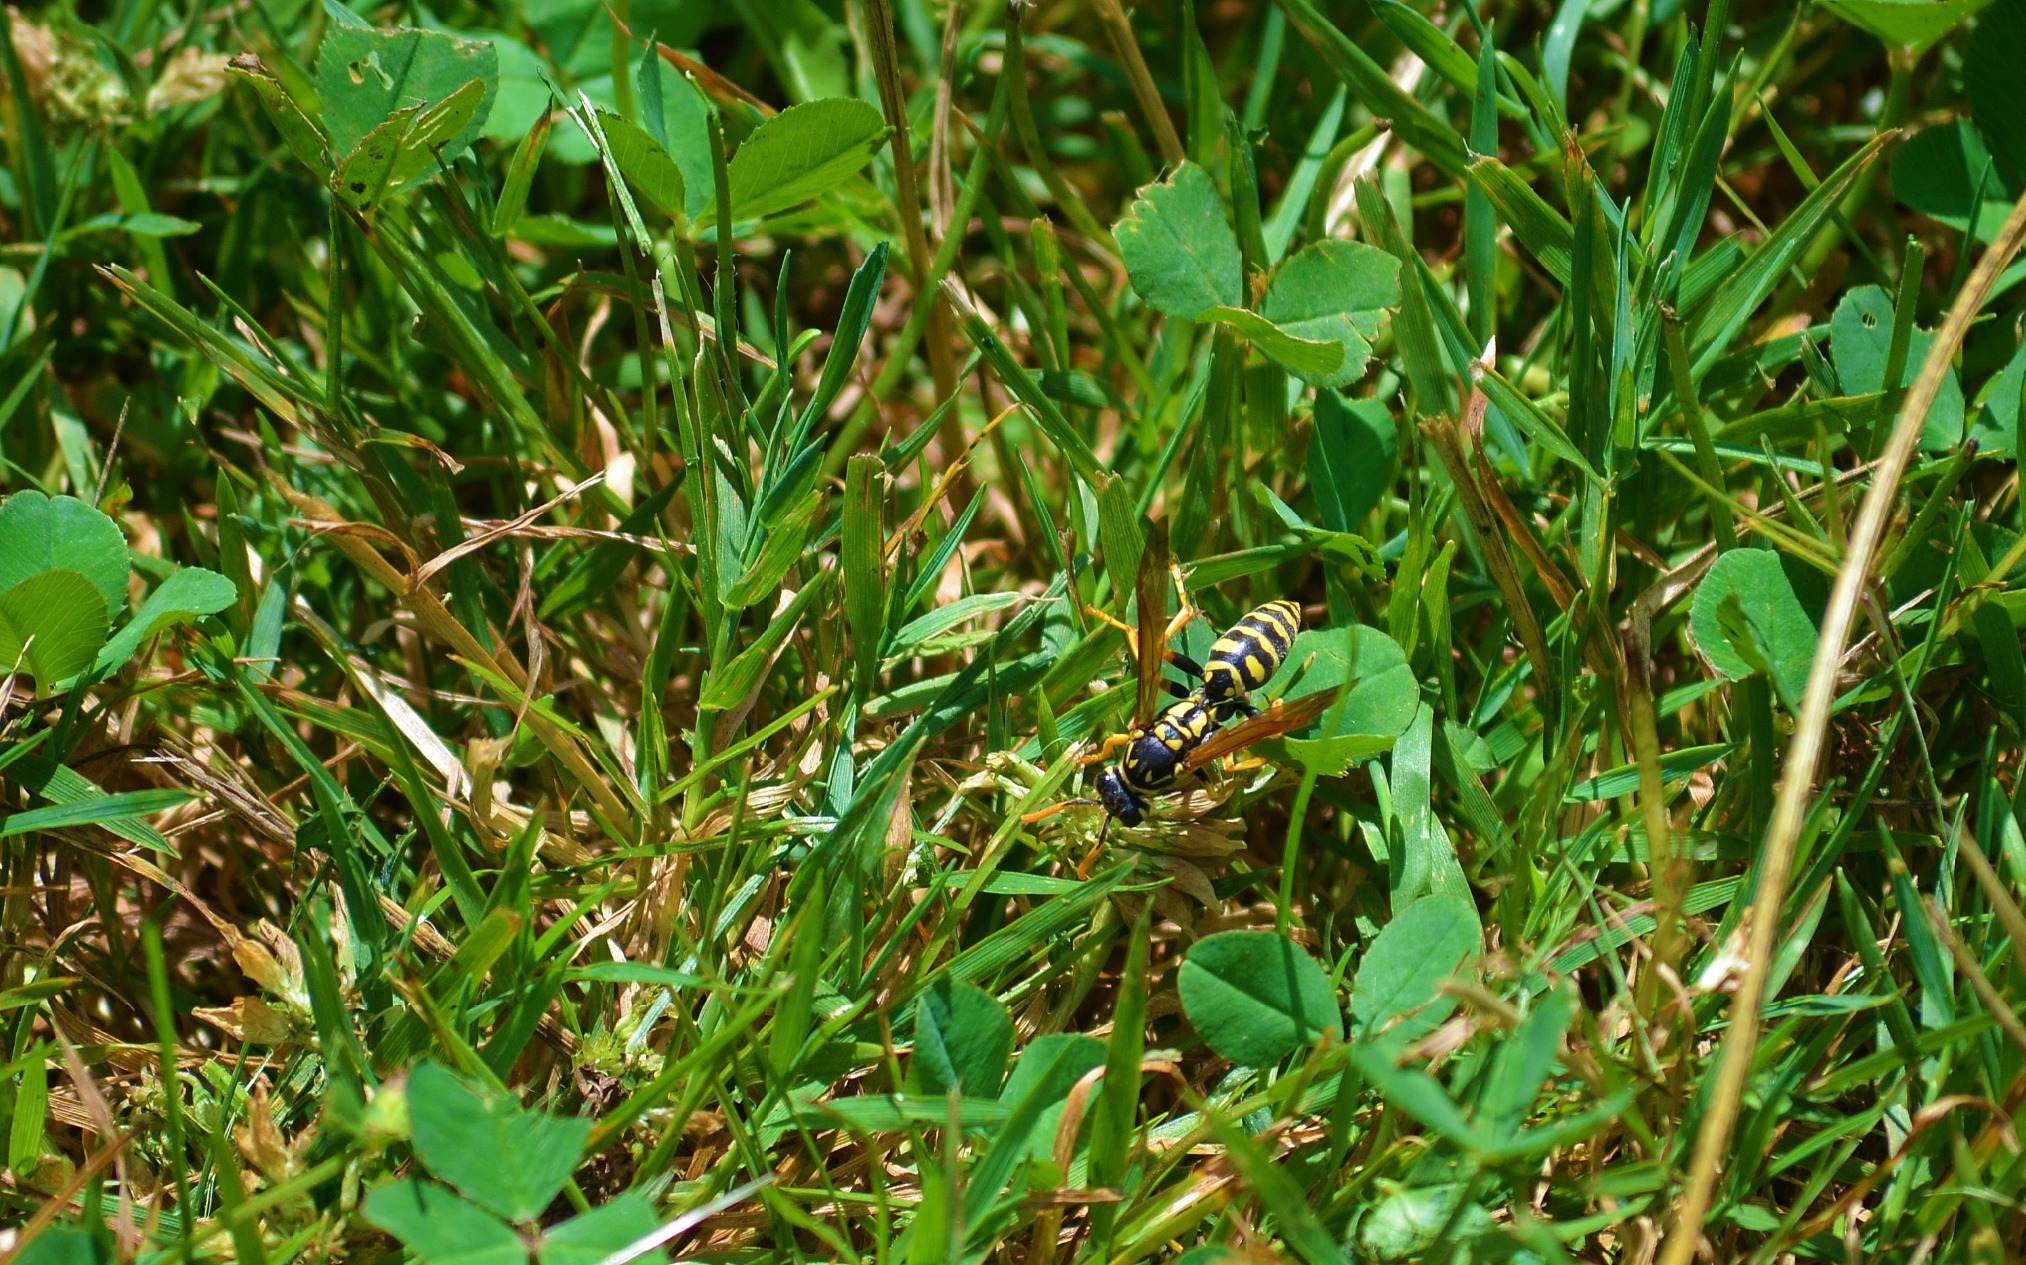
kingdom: Animalia
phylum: Arthropoda
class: Insecta
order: Hymenoptera
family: Eumenidae
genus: Polistes
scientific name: Polistes dominula
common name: Paper wasp
